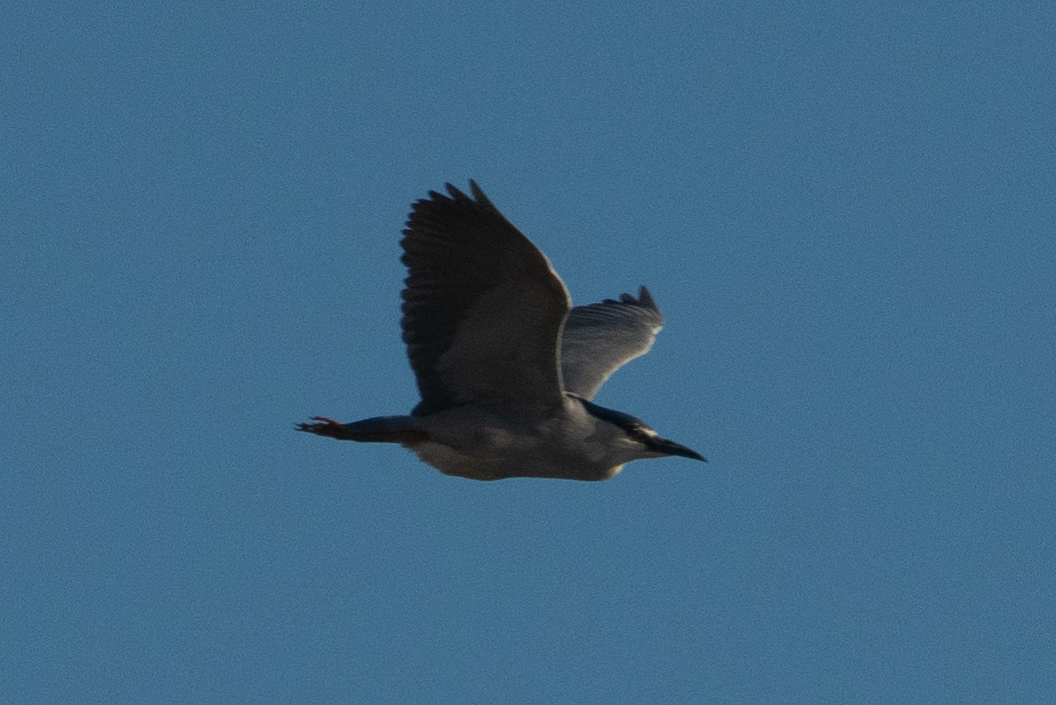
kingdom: Animalia
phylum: Chordata
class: Aves
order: Pelecaniformes
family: Ardeidae
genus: Nycticorax
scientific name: Nycticorax nycticorax
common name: Black-crowned night heron
